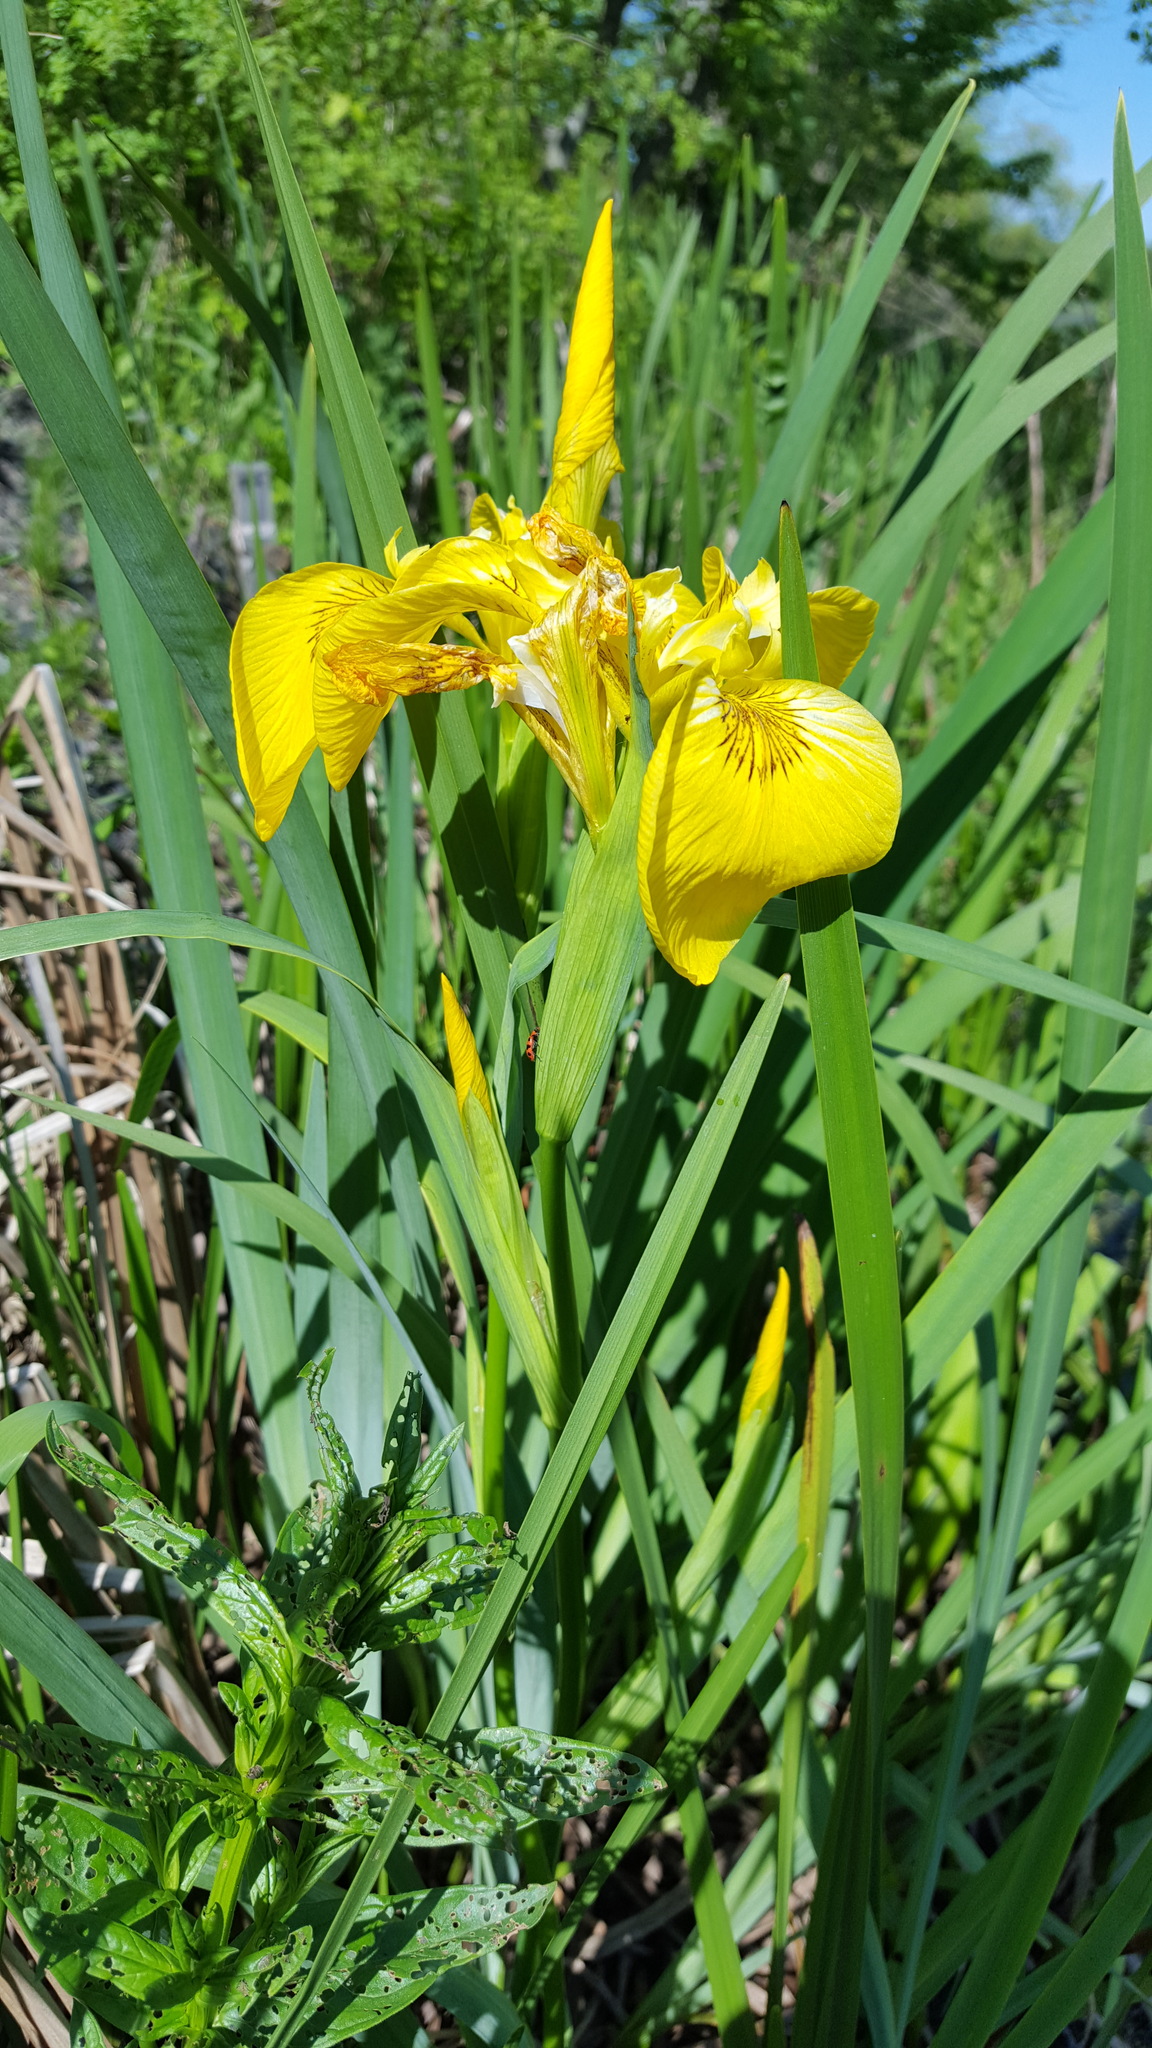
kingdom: Plantae
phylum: Tracheophyta
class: Liliopsida
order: Asparagales
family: Iridaceae
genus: Iris
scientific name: Iris pseudacorus
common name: Yellow flag
